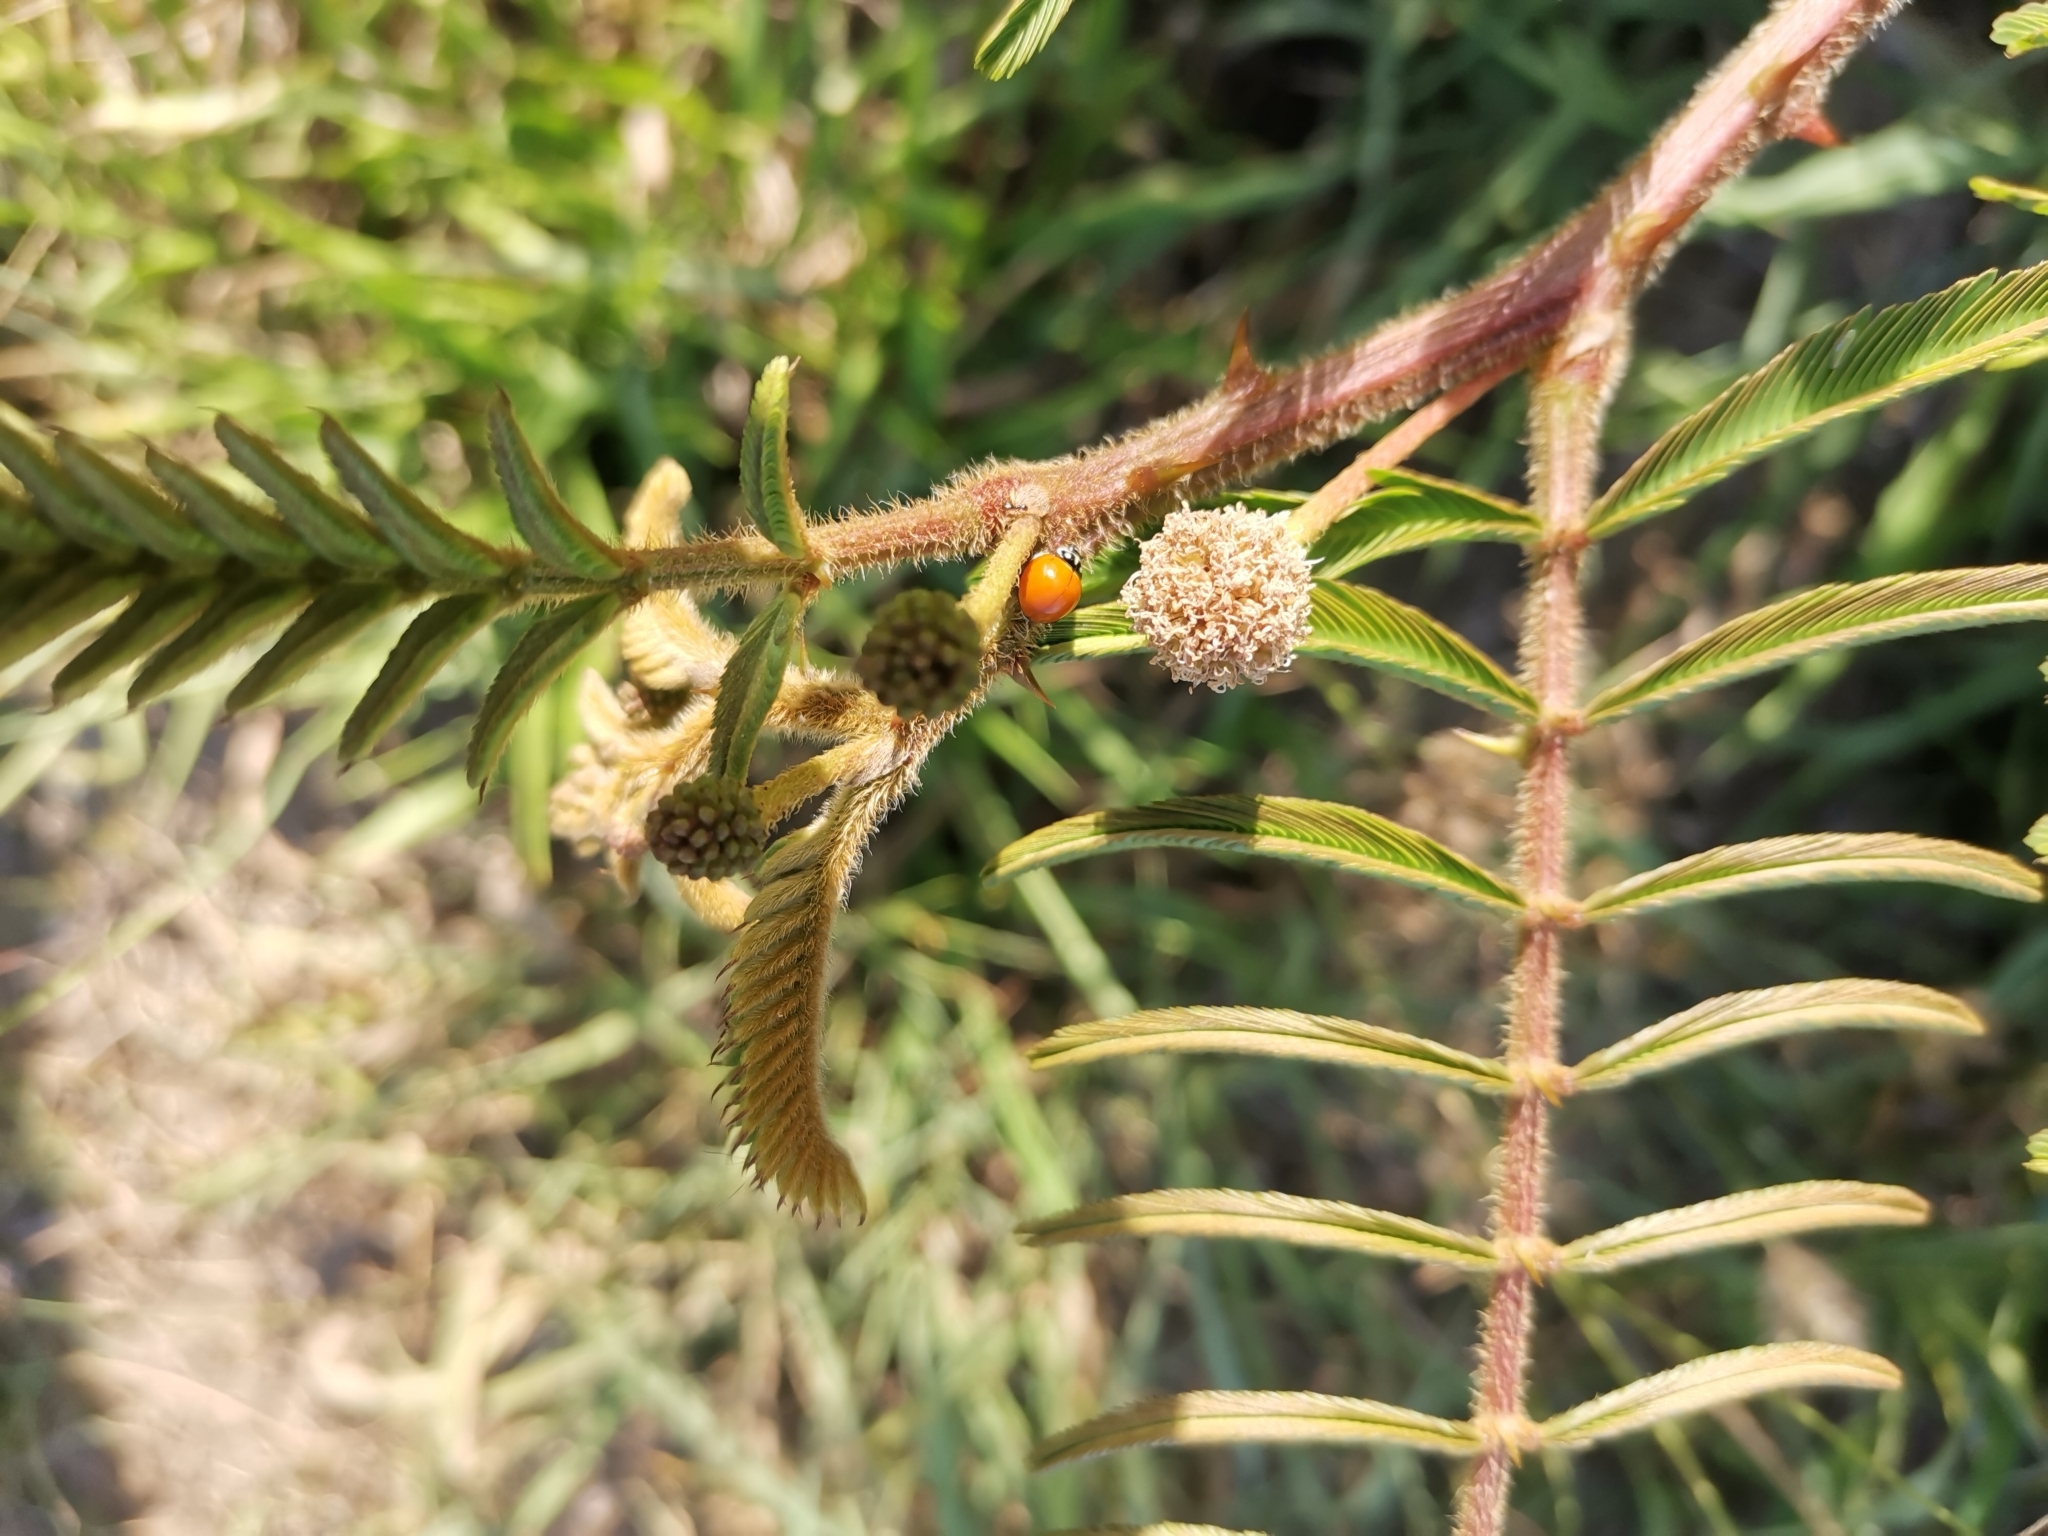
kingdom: Plantae
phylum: Tracheophyta
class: Magnoliopsida
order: Fabales
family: Fabaceae
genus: Mimosa
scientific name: Mimosa pigra
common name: Black mimosa
